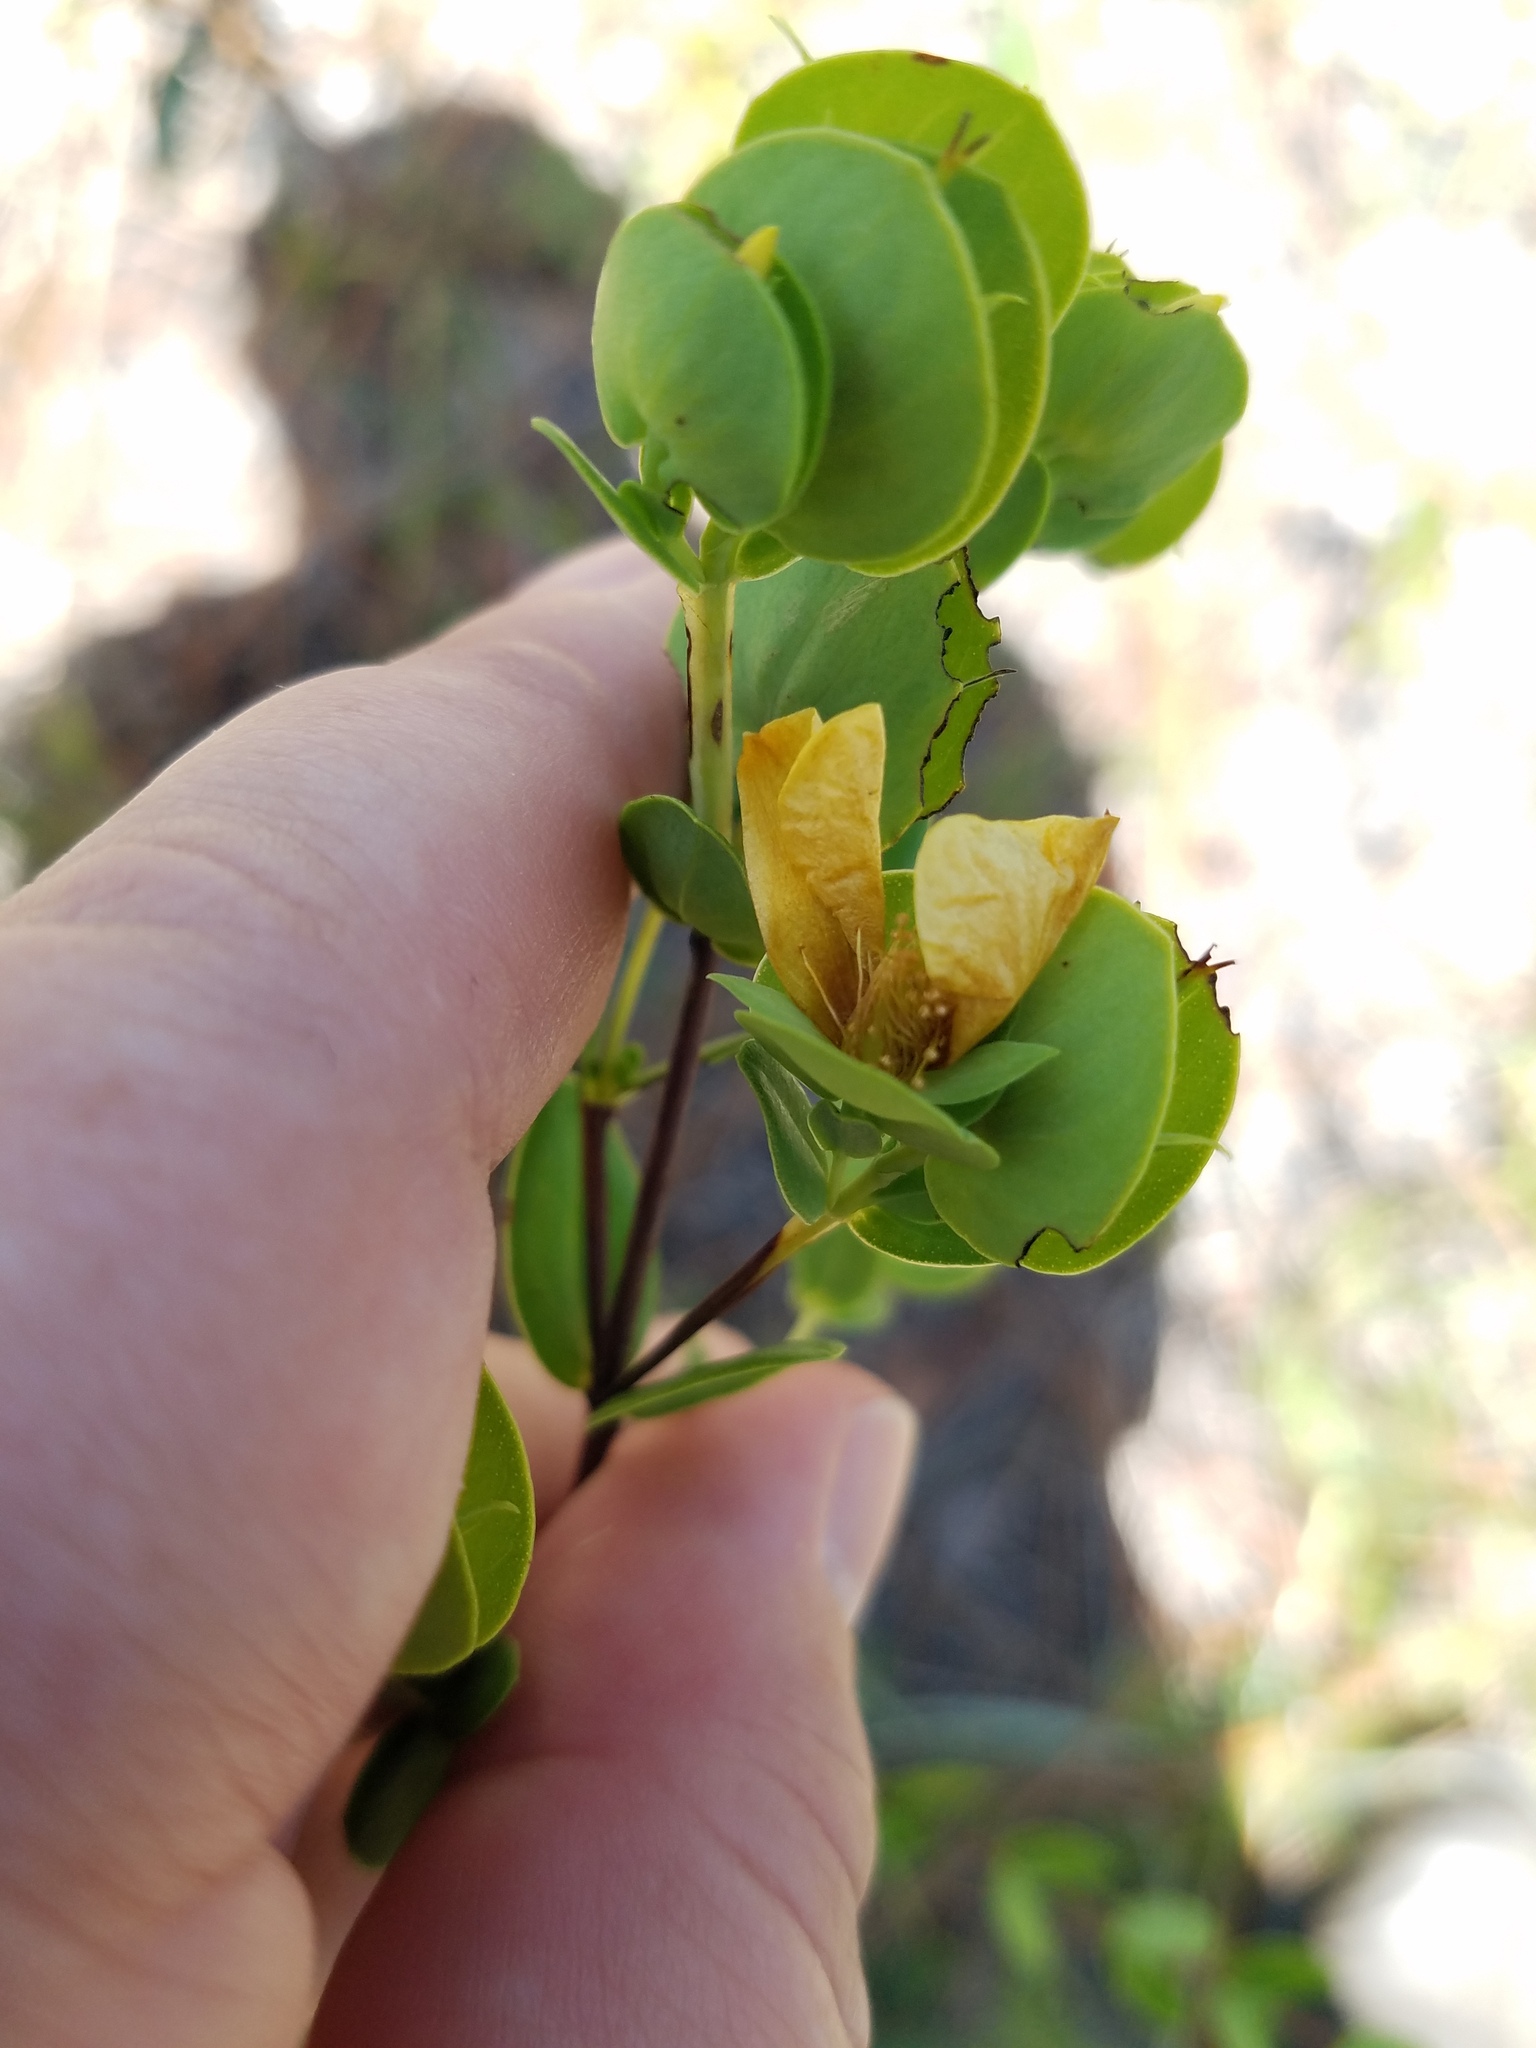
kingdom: Plantae
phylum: Tracheophyta
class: Magnoliopsida
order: Malpighiales
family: Hypericaceae
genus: Hypericum
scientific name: Hypericum crux-andreae
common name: St.-peter's-wort
